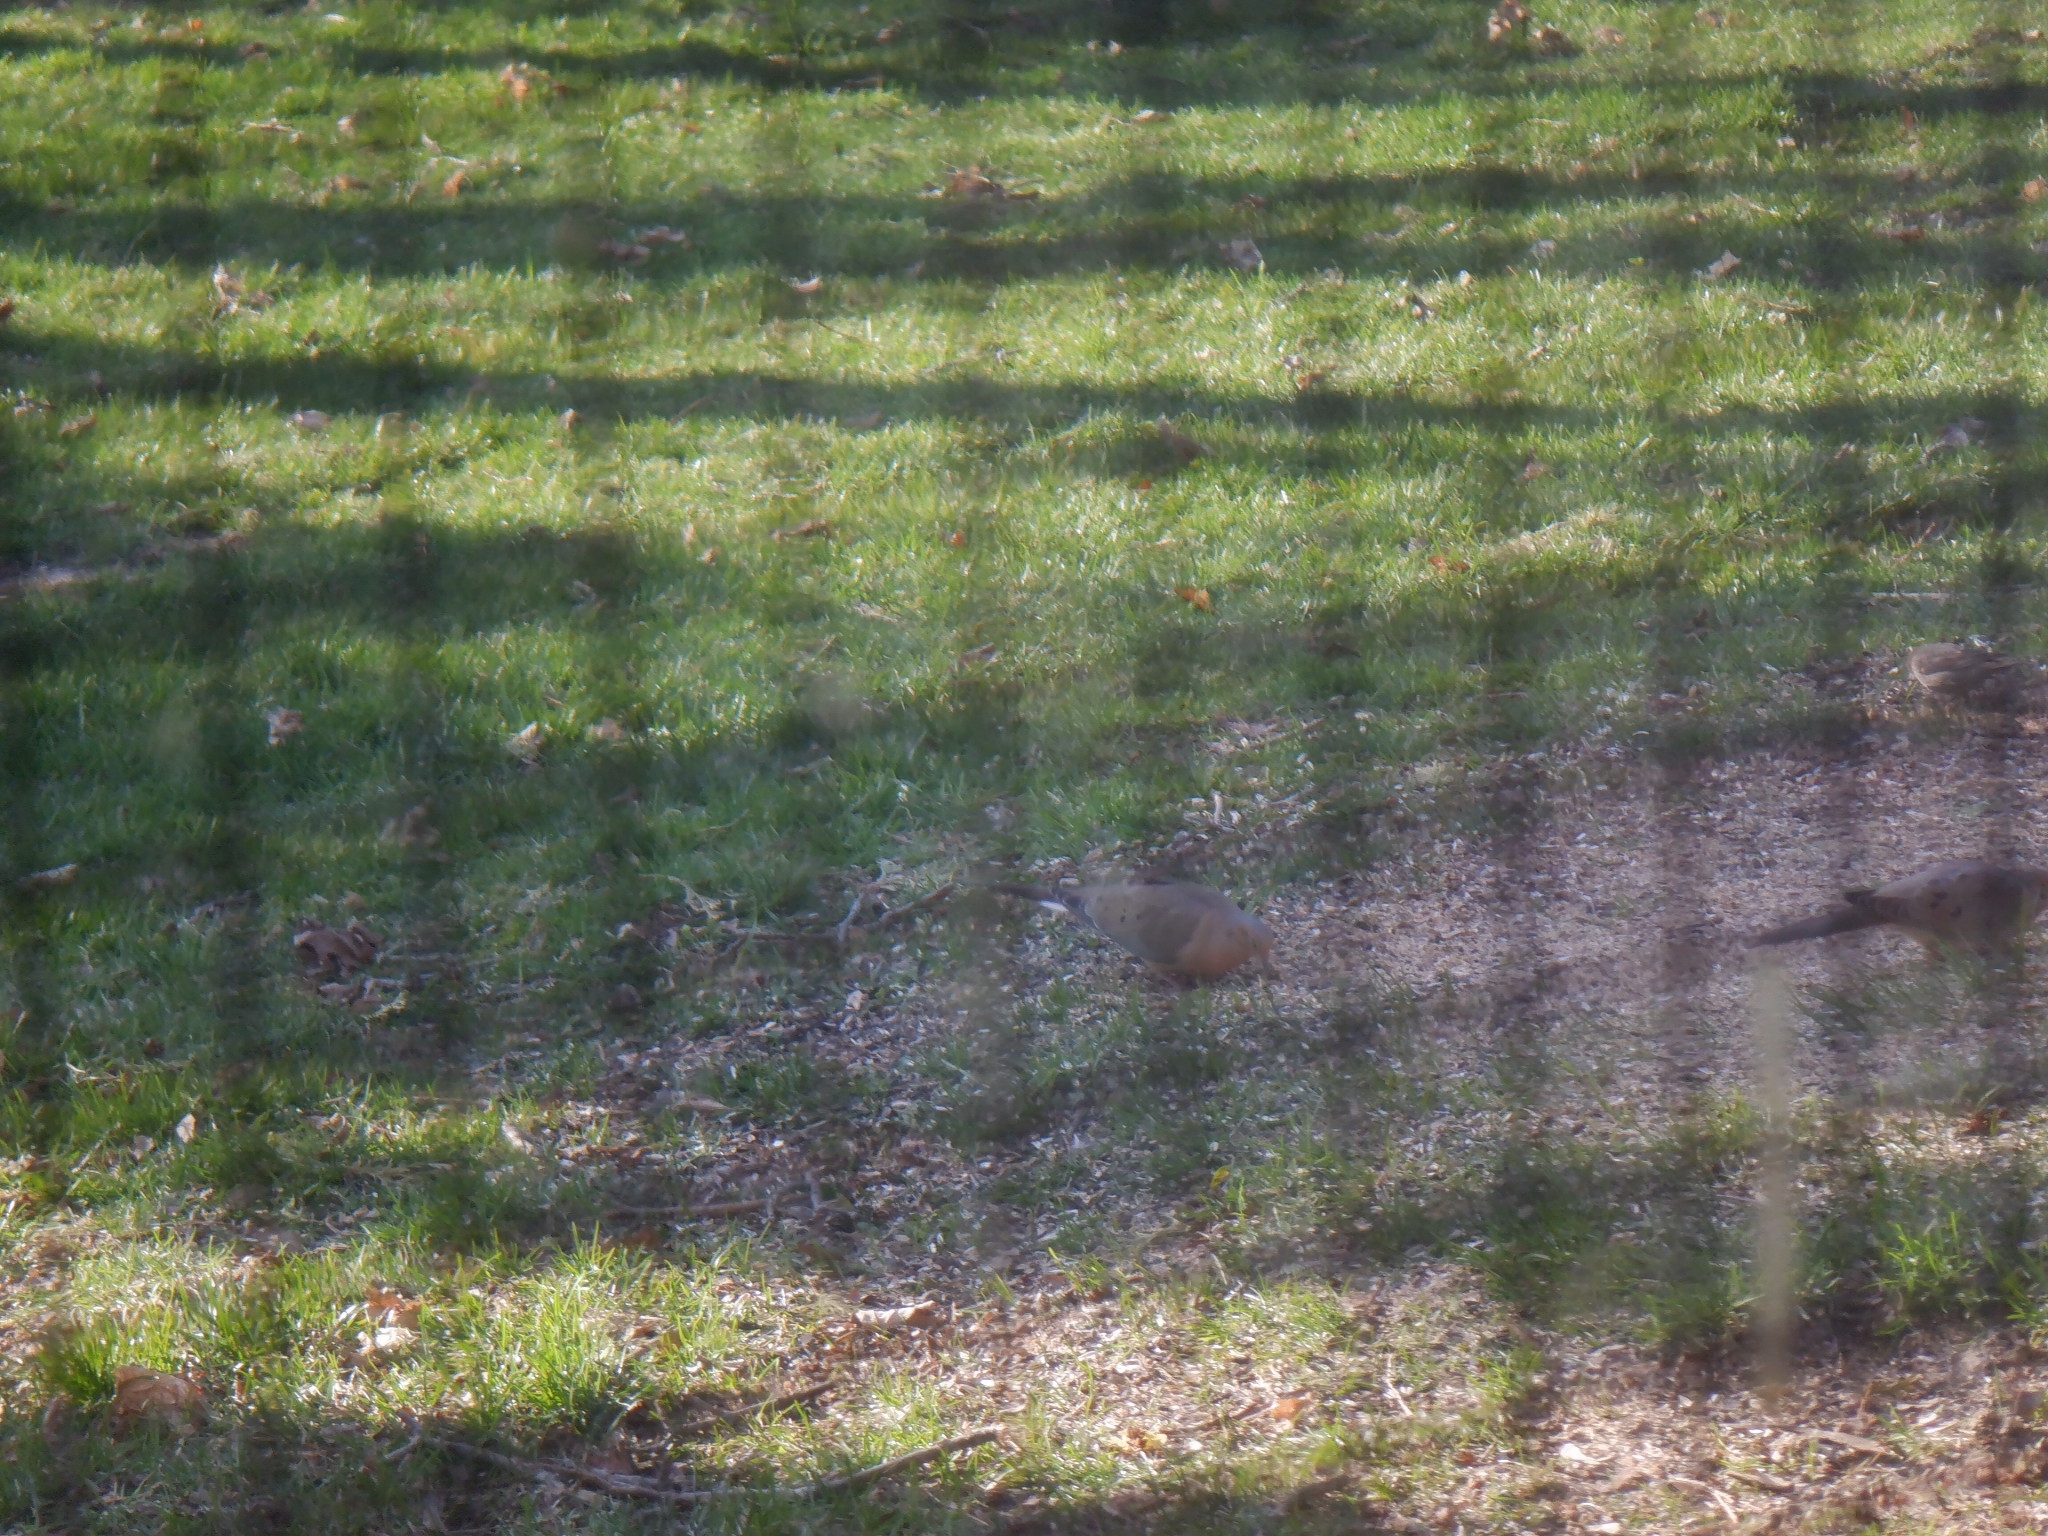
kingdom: Animalia
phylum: Chordata
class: Aves
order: Columbiformes
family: Columbidae
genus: Zenaida
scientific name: Zenaida macroura
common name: Mourning dove
